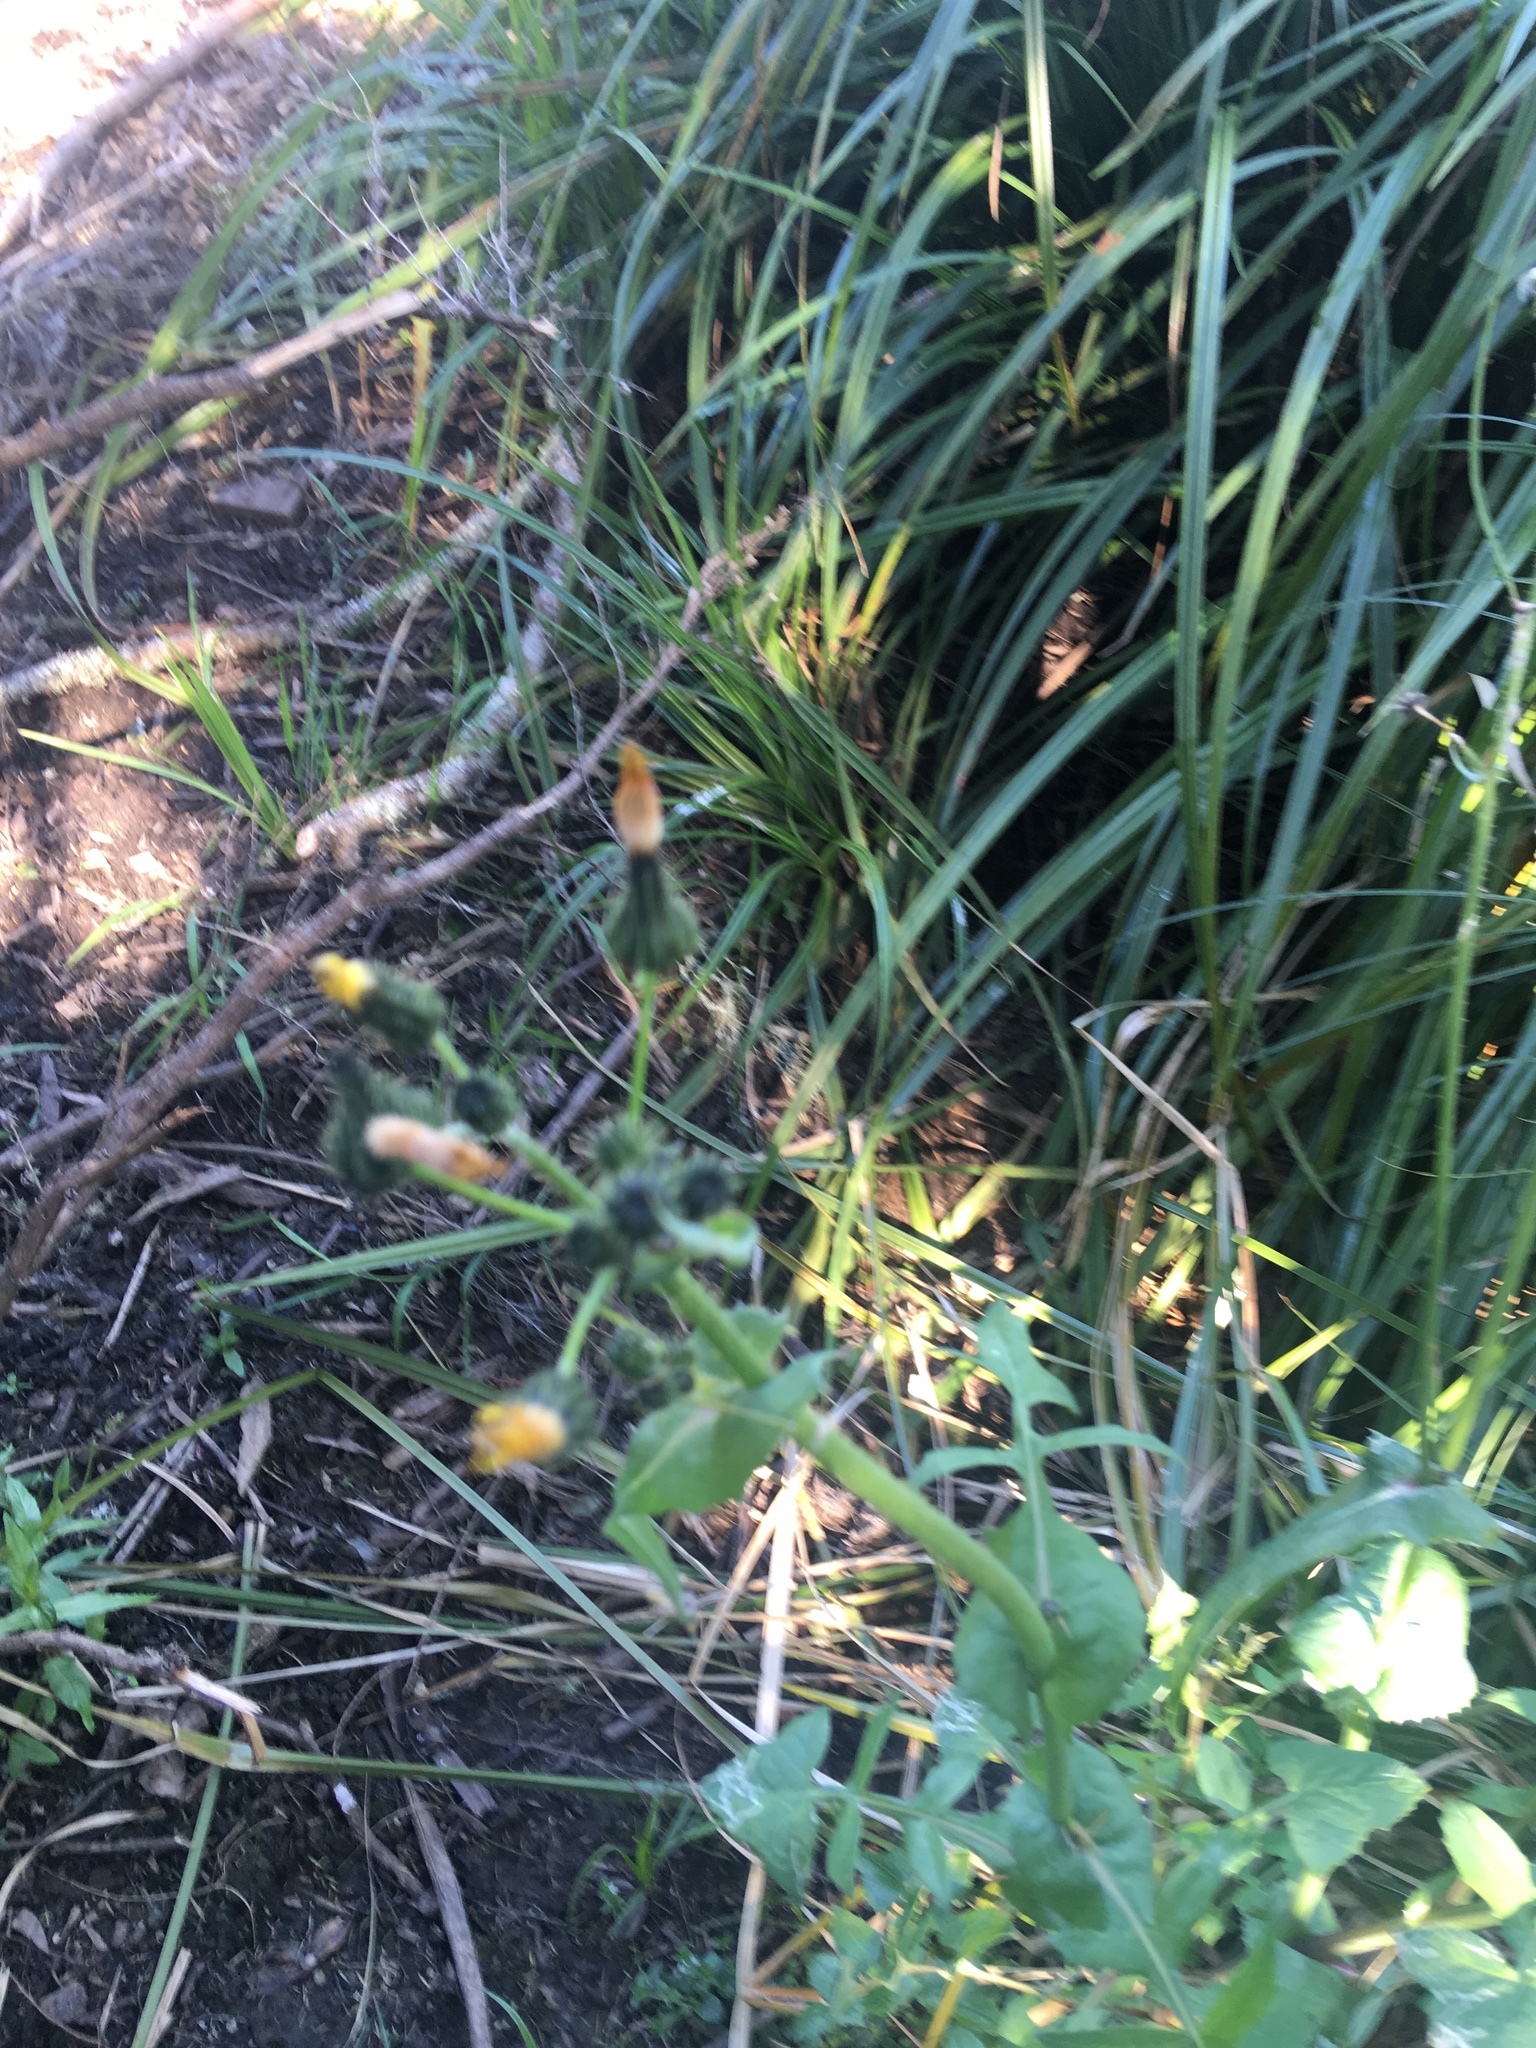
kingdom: Plantae
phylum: Tracheophyta
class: Magnoliopsida
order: Asterales
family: Asteraceae
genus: Sonchus
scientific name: Sonchus oleraceus
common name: Common sowthistle
